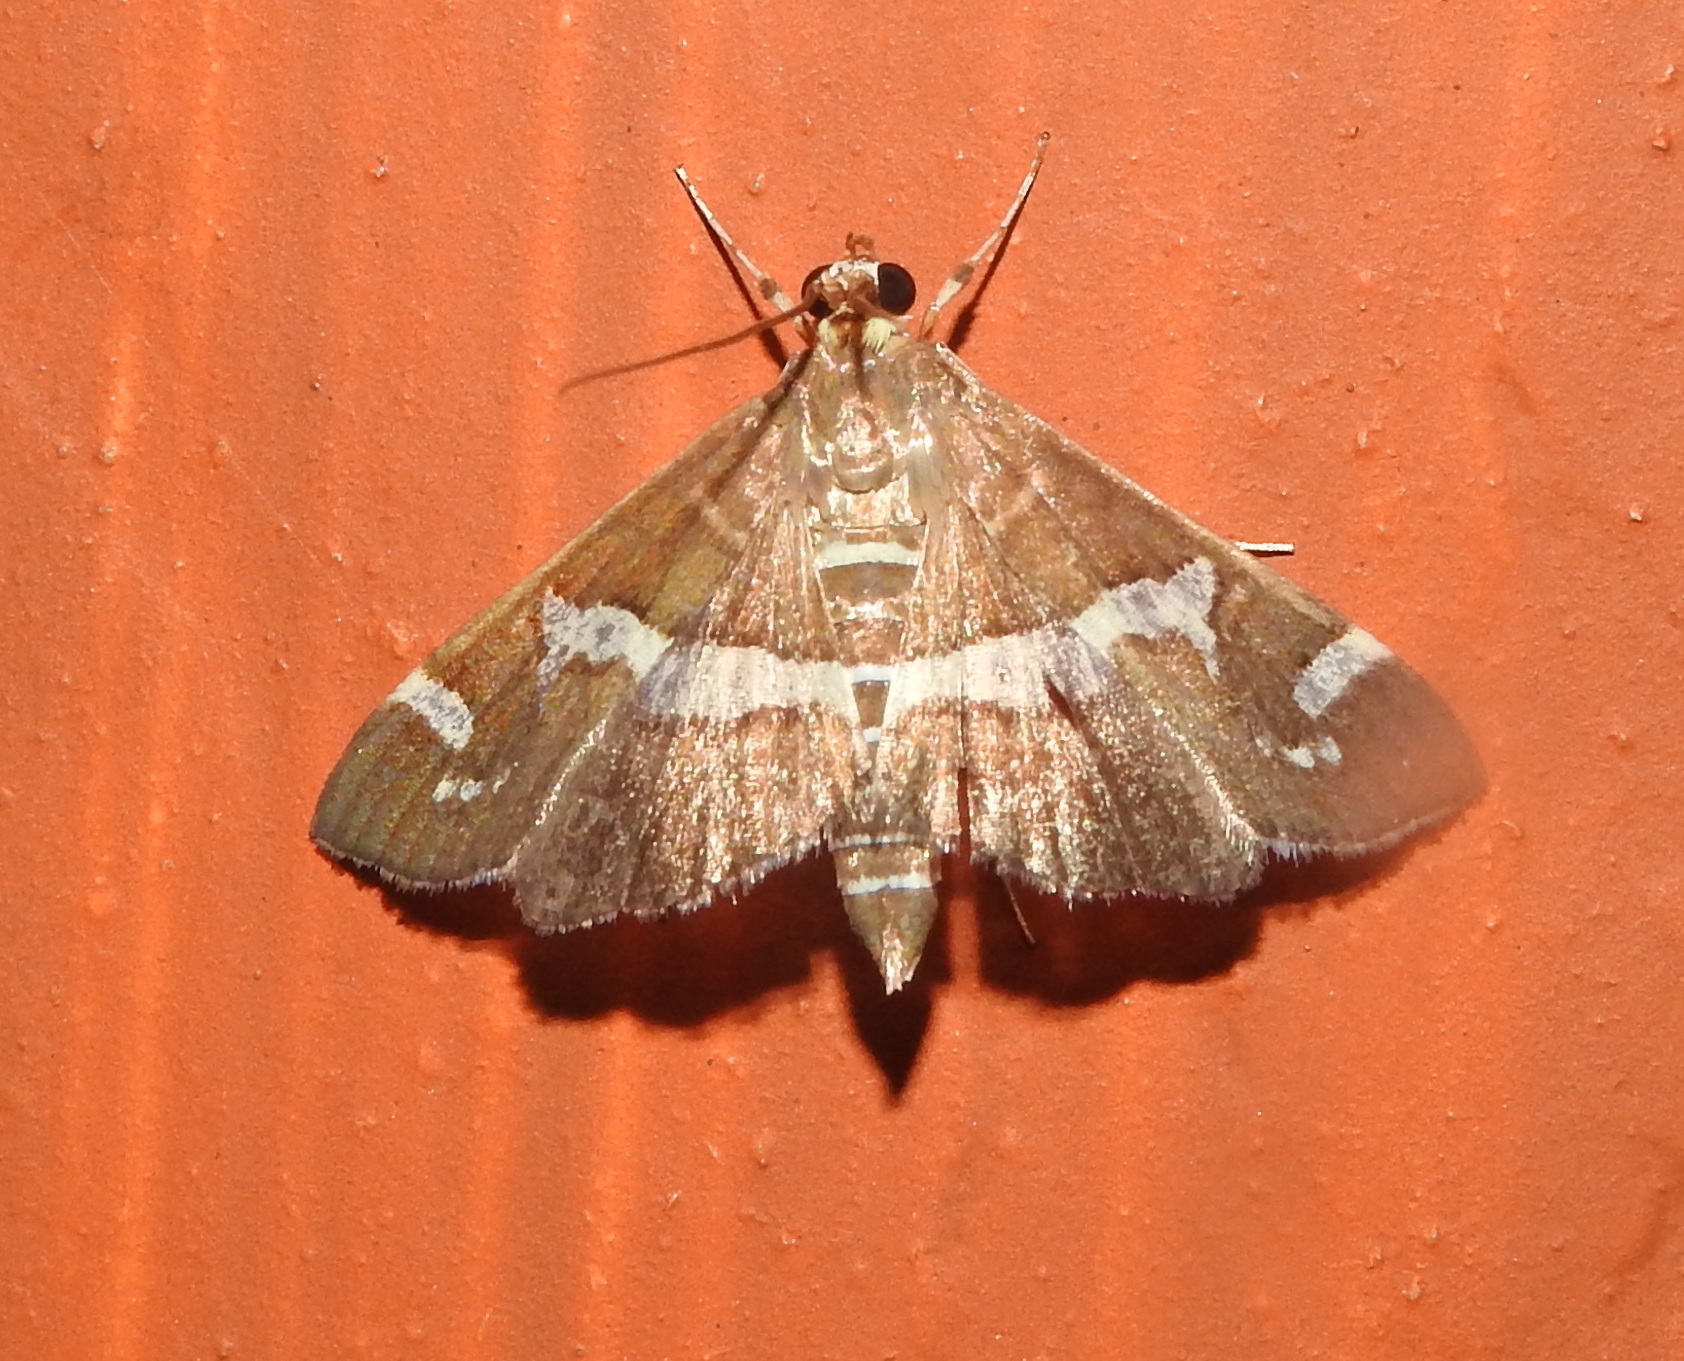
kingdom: Animalia
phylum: Arthropoda
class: Insecta
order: Lepidoptera
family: Crambidae
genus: Spoladea
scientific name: Spoladea recurvalis
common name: Beet webworm moth
